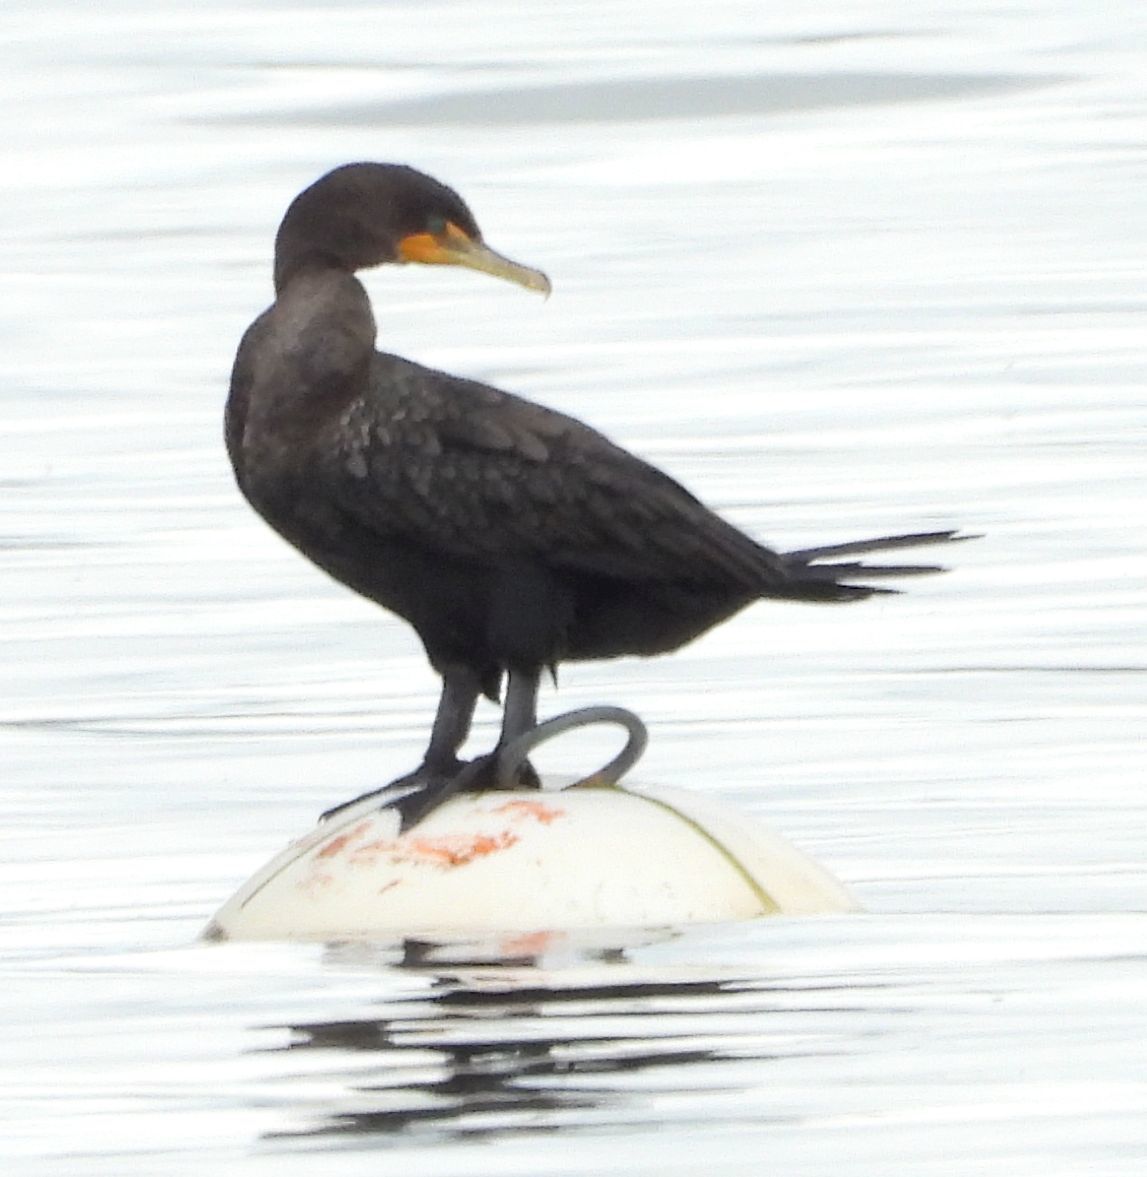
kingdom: Animalia
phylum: Chordata
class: Aves
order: Suliformes
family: Phalacrocoracidae
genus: Phalacrocorax
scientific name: Phalacrocorax auritus
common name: Double-crested cormorant
